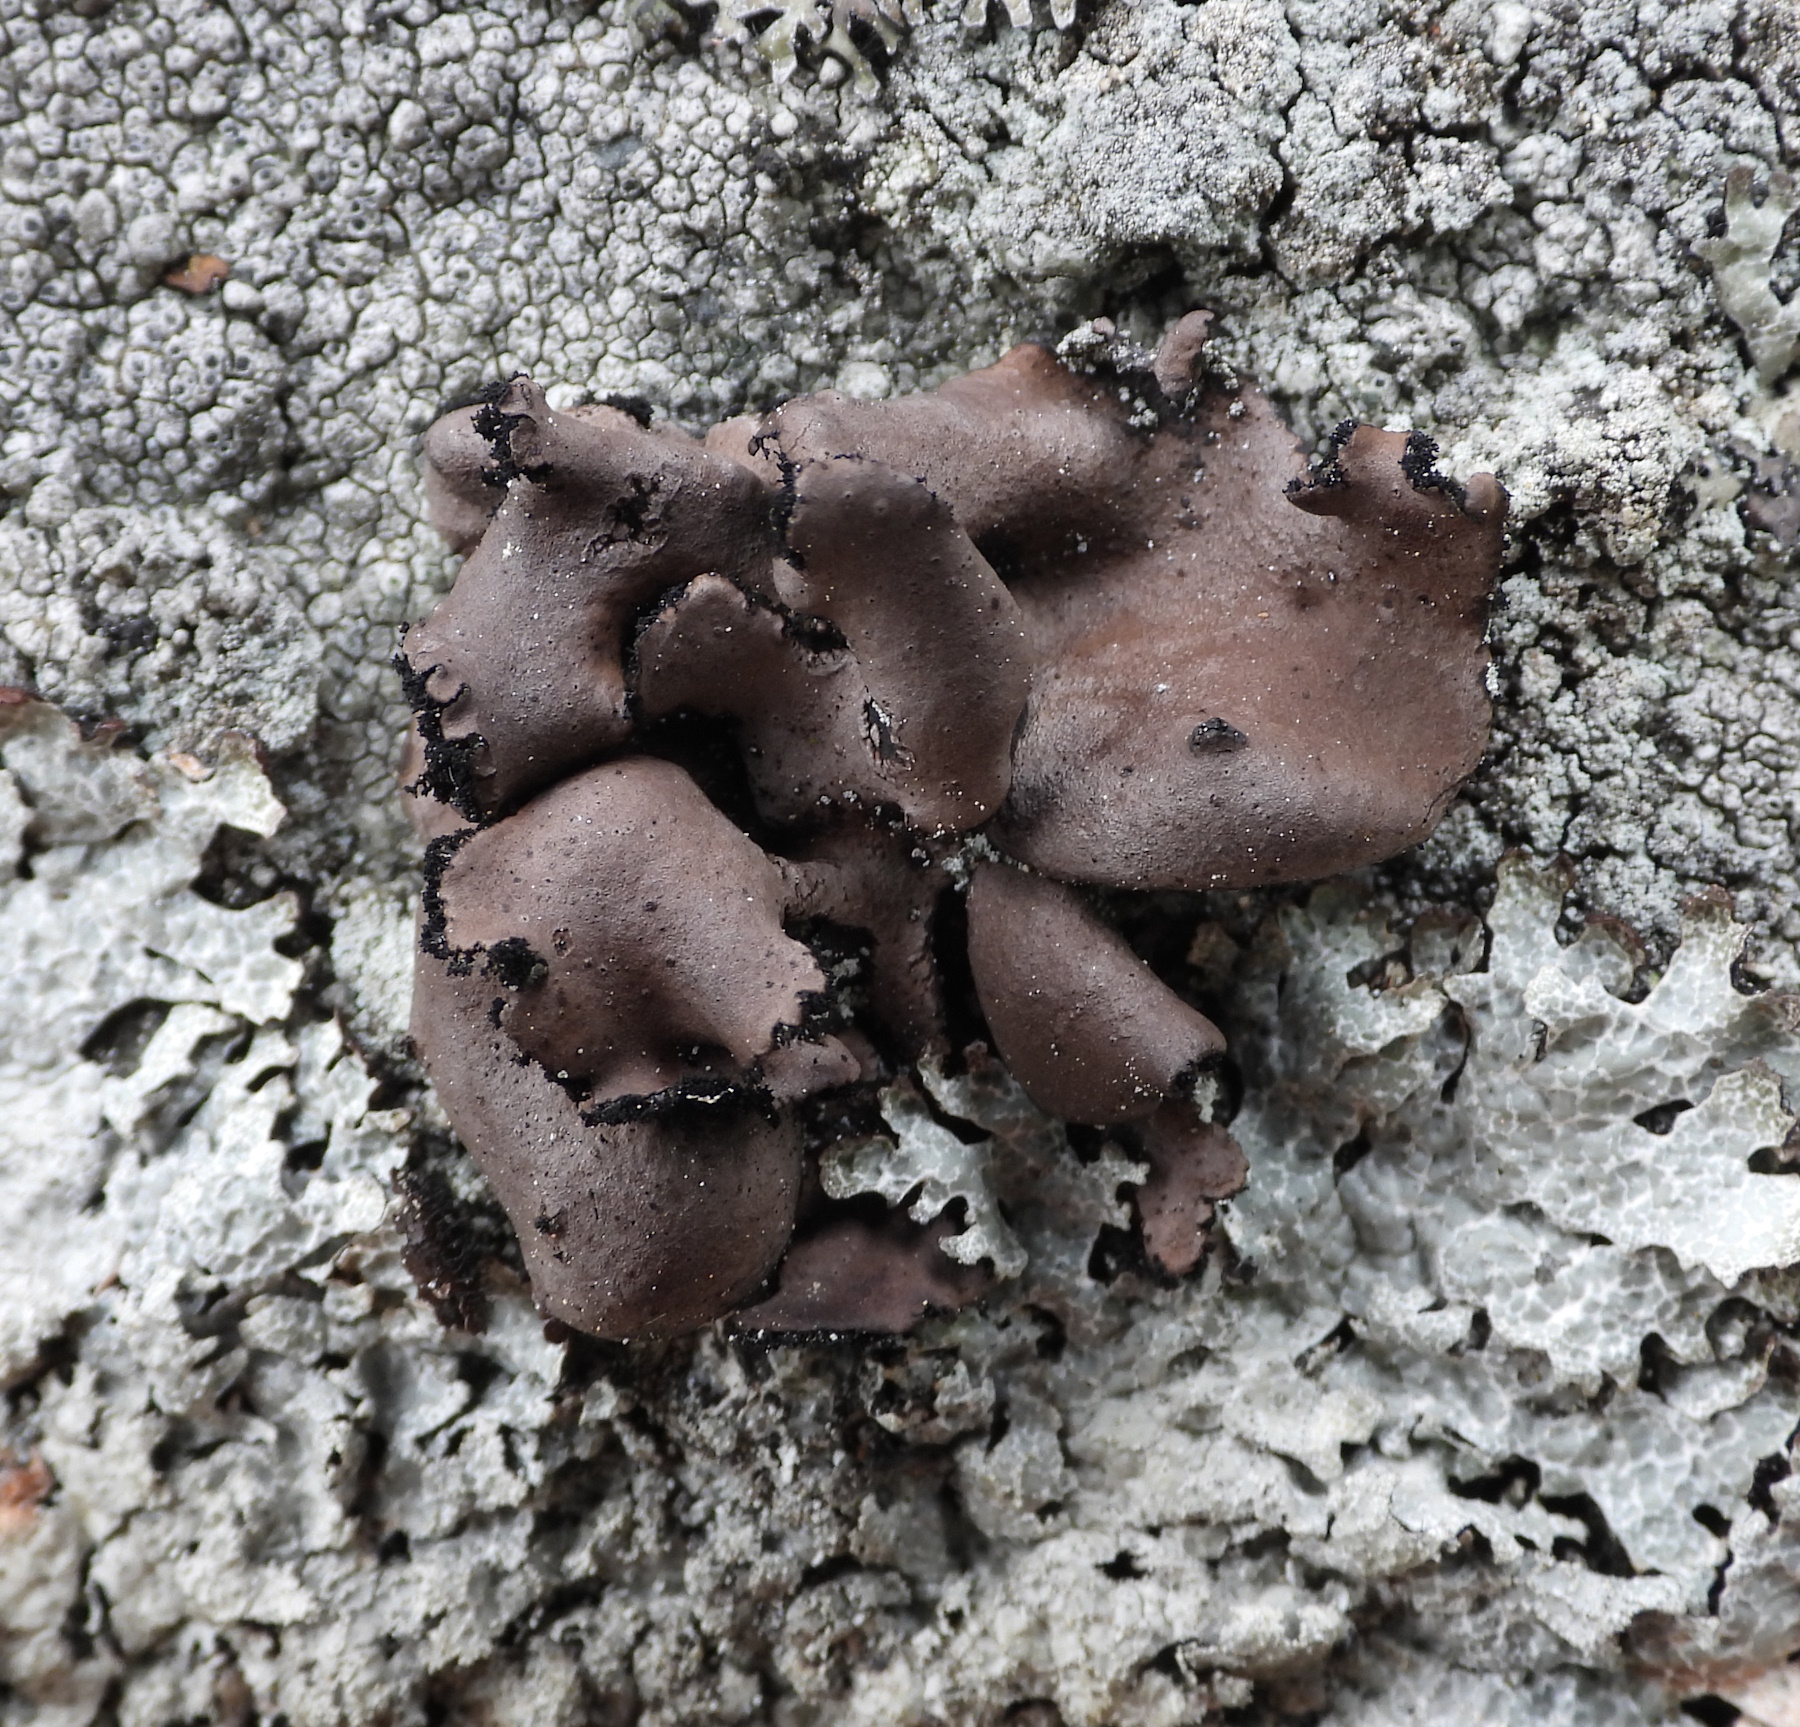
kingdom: Fungi
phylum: Ascomycota
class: Lecanoromycetes
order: Umbilicariales
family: Umbilicariaceae
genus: Umbilicaria
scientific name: Umbilicaria polyrrhiza
